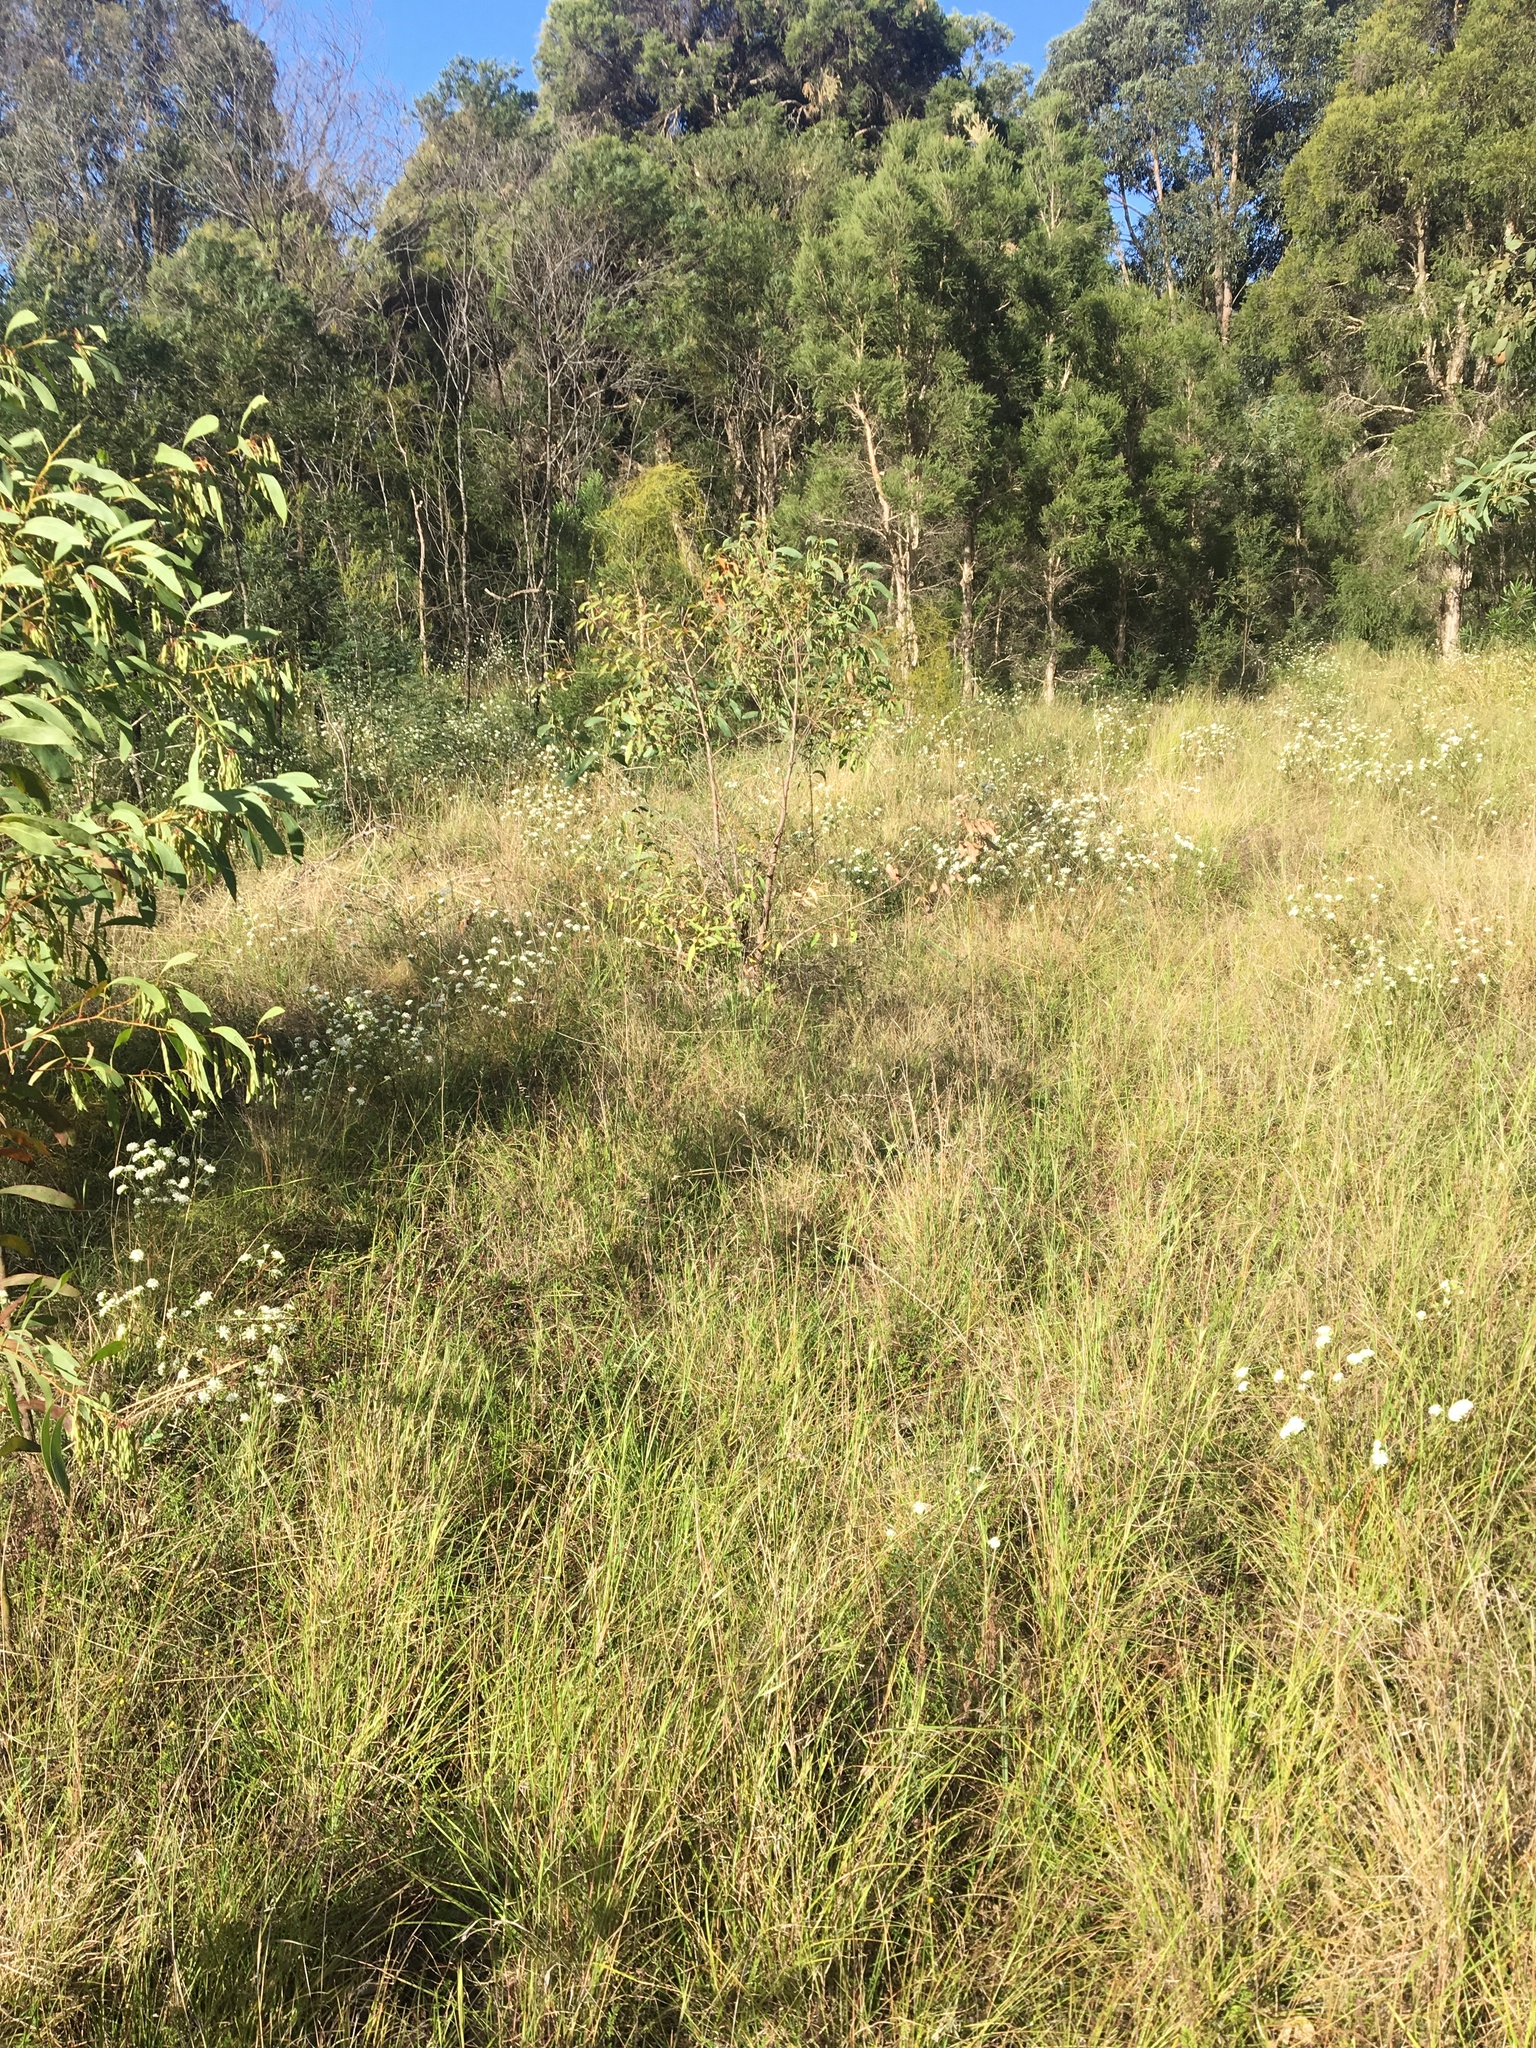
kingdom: Plantae
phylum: Tracheophyta
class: Magnoliopsida
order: Malvales
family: Thymelaeaceae
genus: Pimelea
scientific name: Pimelea linifolia
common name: Queen-of-the-bush
